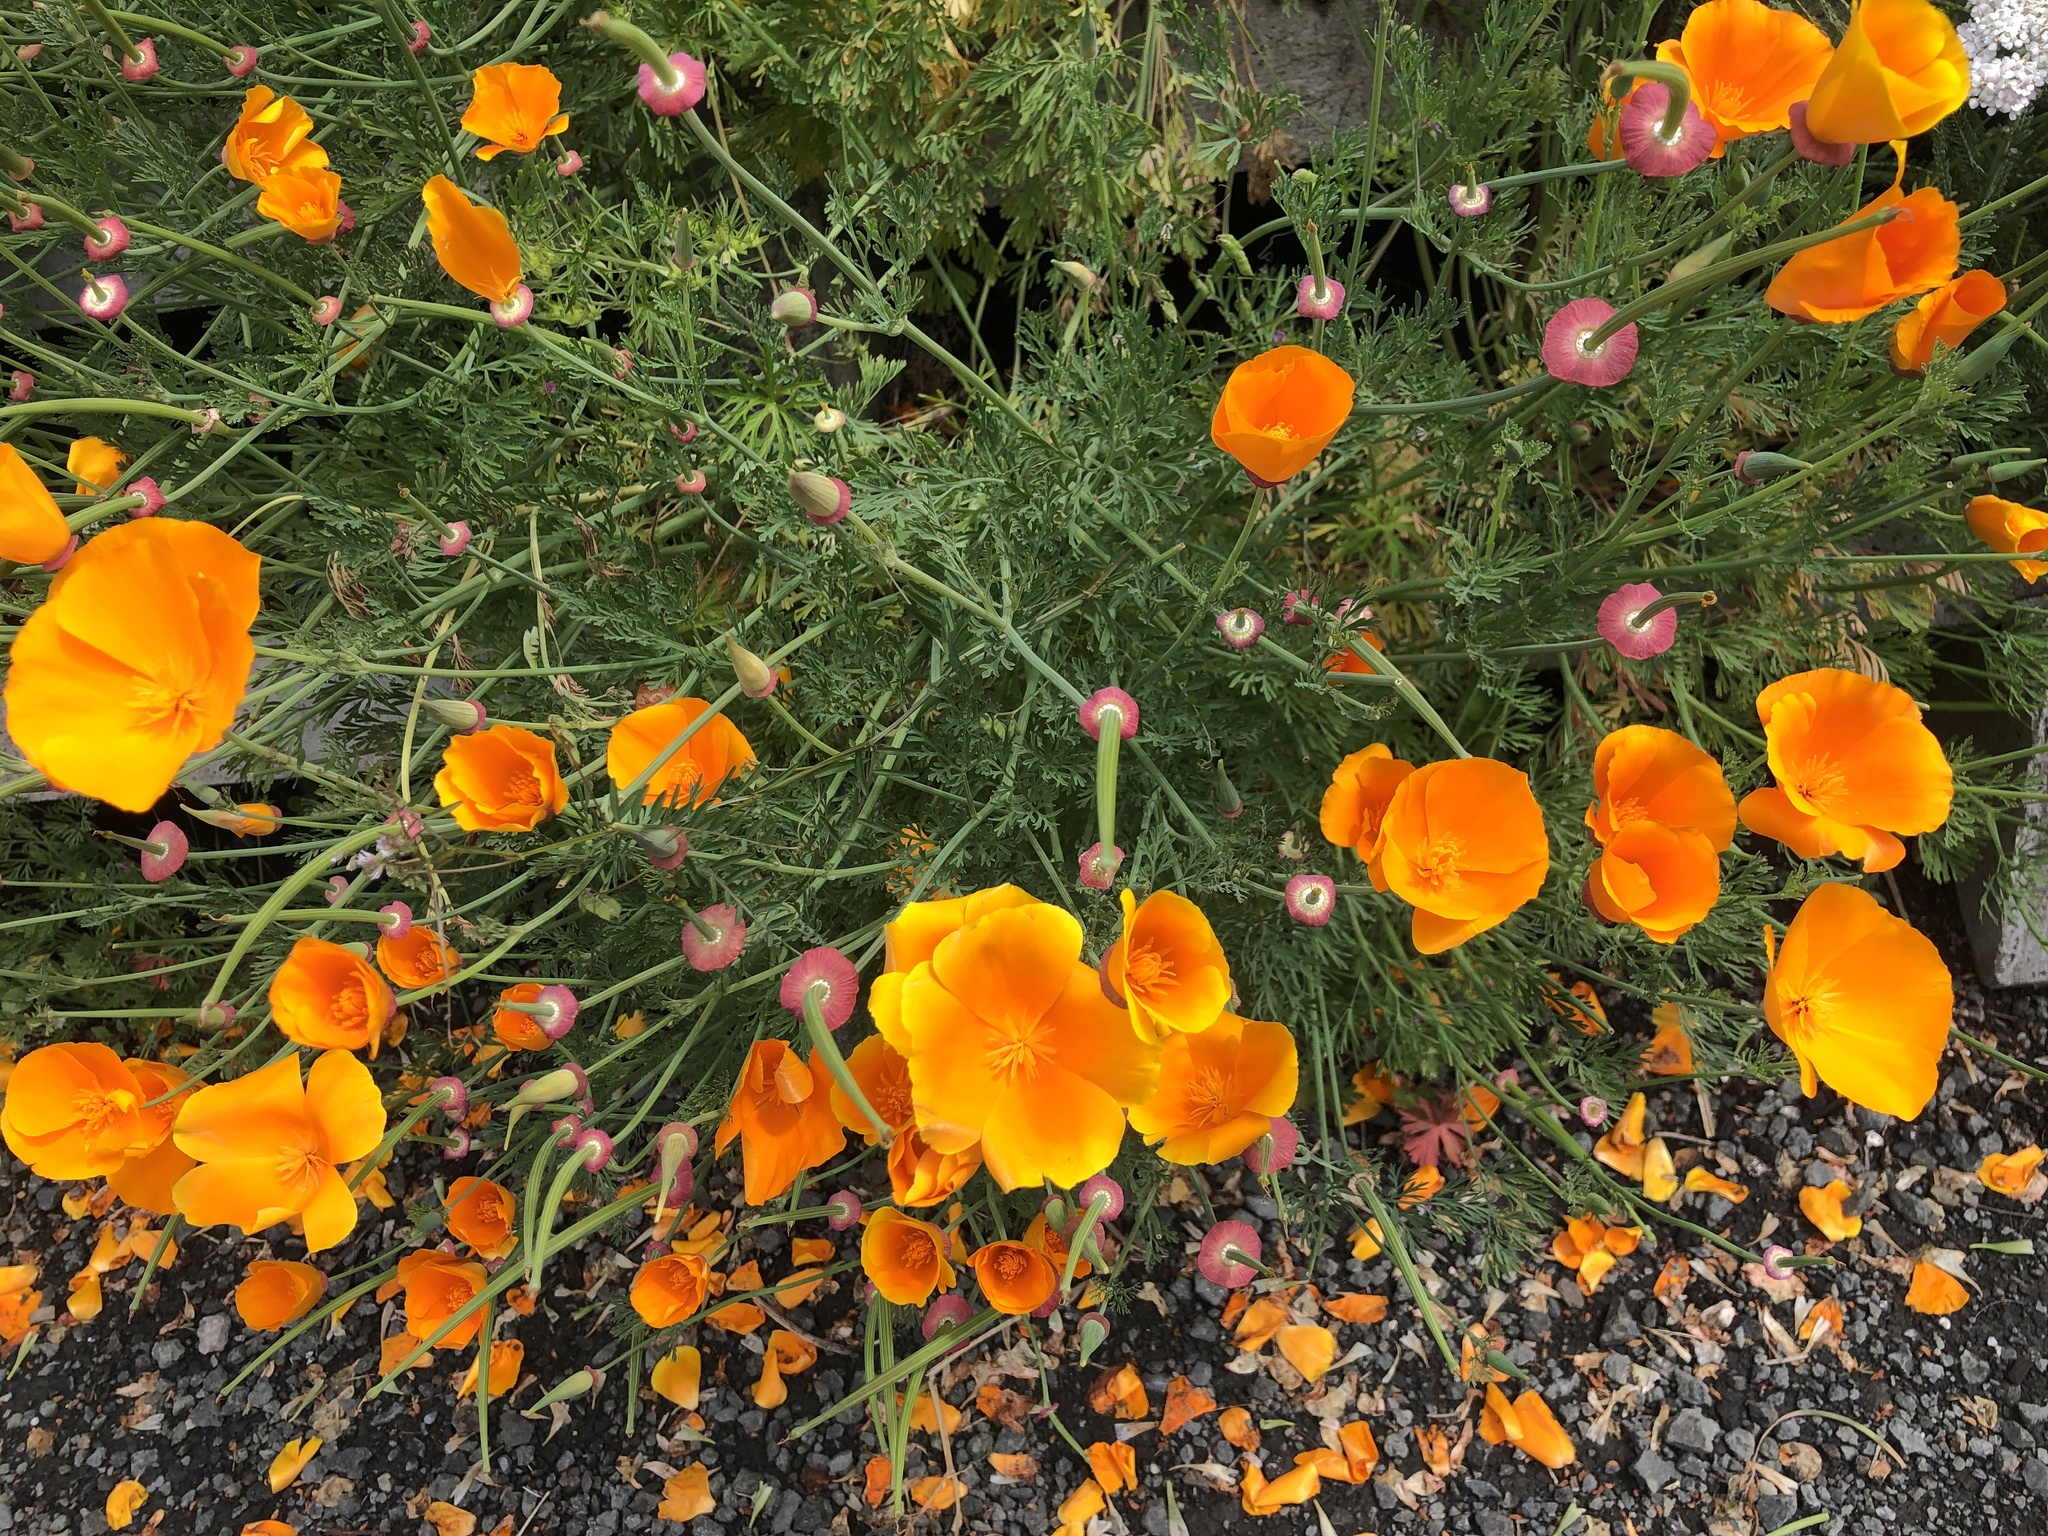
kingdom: Plantae
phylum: Tracheophyta
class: Magnoliopsida
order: Ranunculales
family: Papaveraceae
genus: Eschscholzia
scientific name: Eschscholzia californica
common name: California poppy
